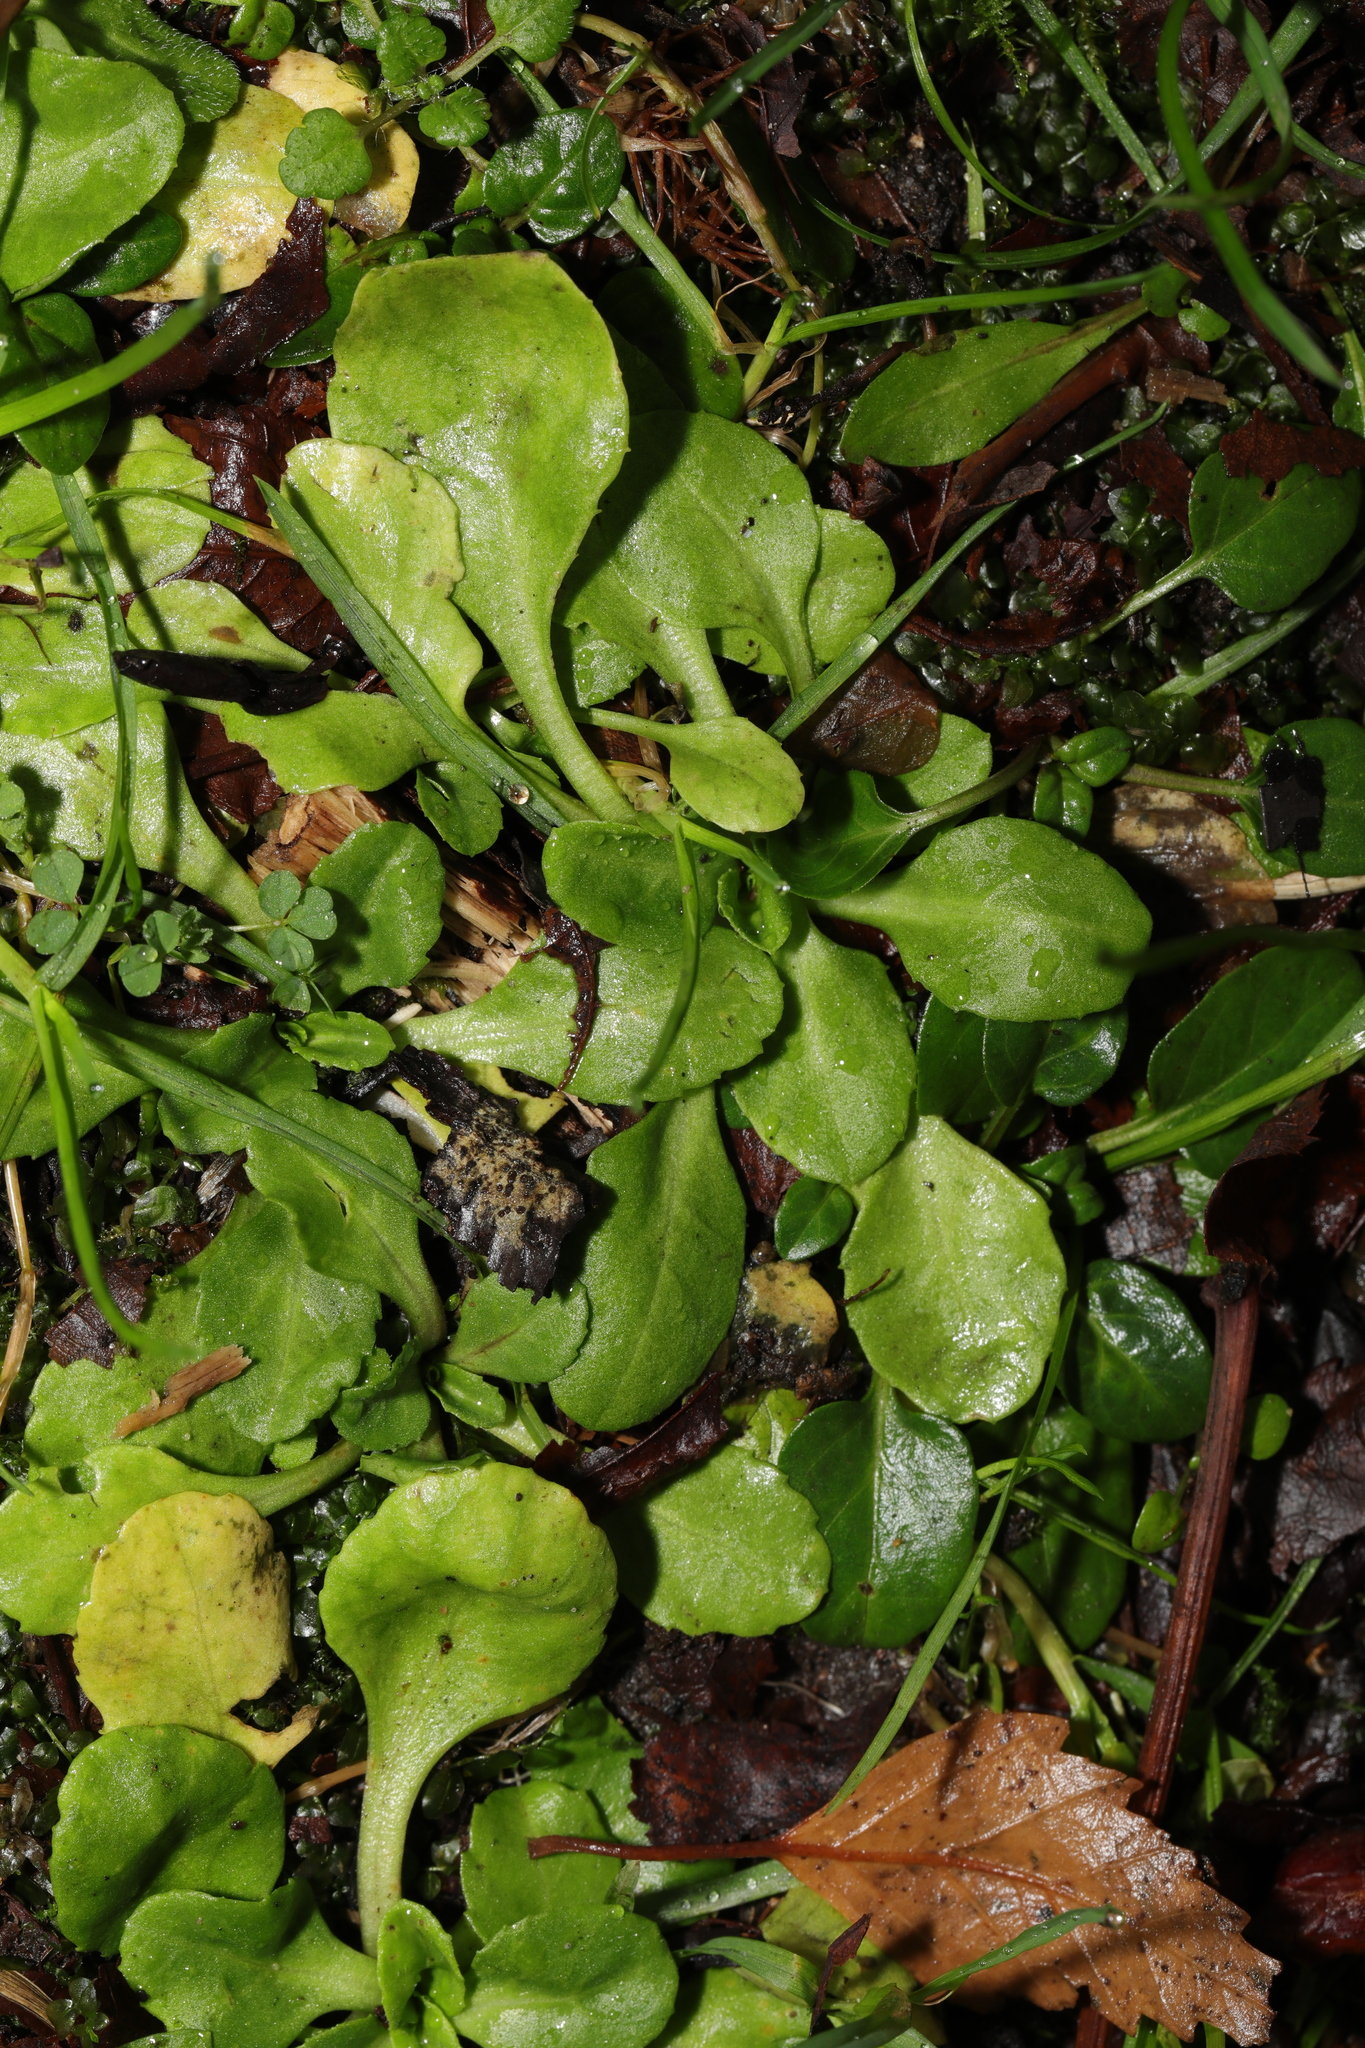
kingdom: Plantae
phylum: Tracheophyta
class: Magnoliopsida
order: Asterales
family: Asteraceae
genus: Bellis
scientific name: Bellis perennis
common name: Lawndaisy
